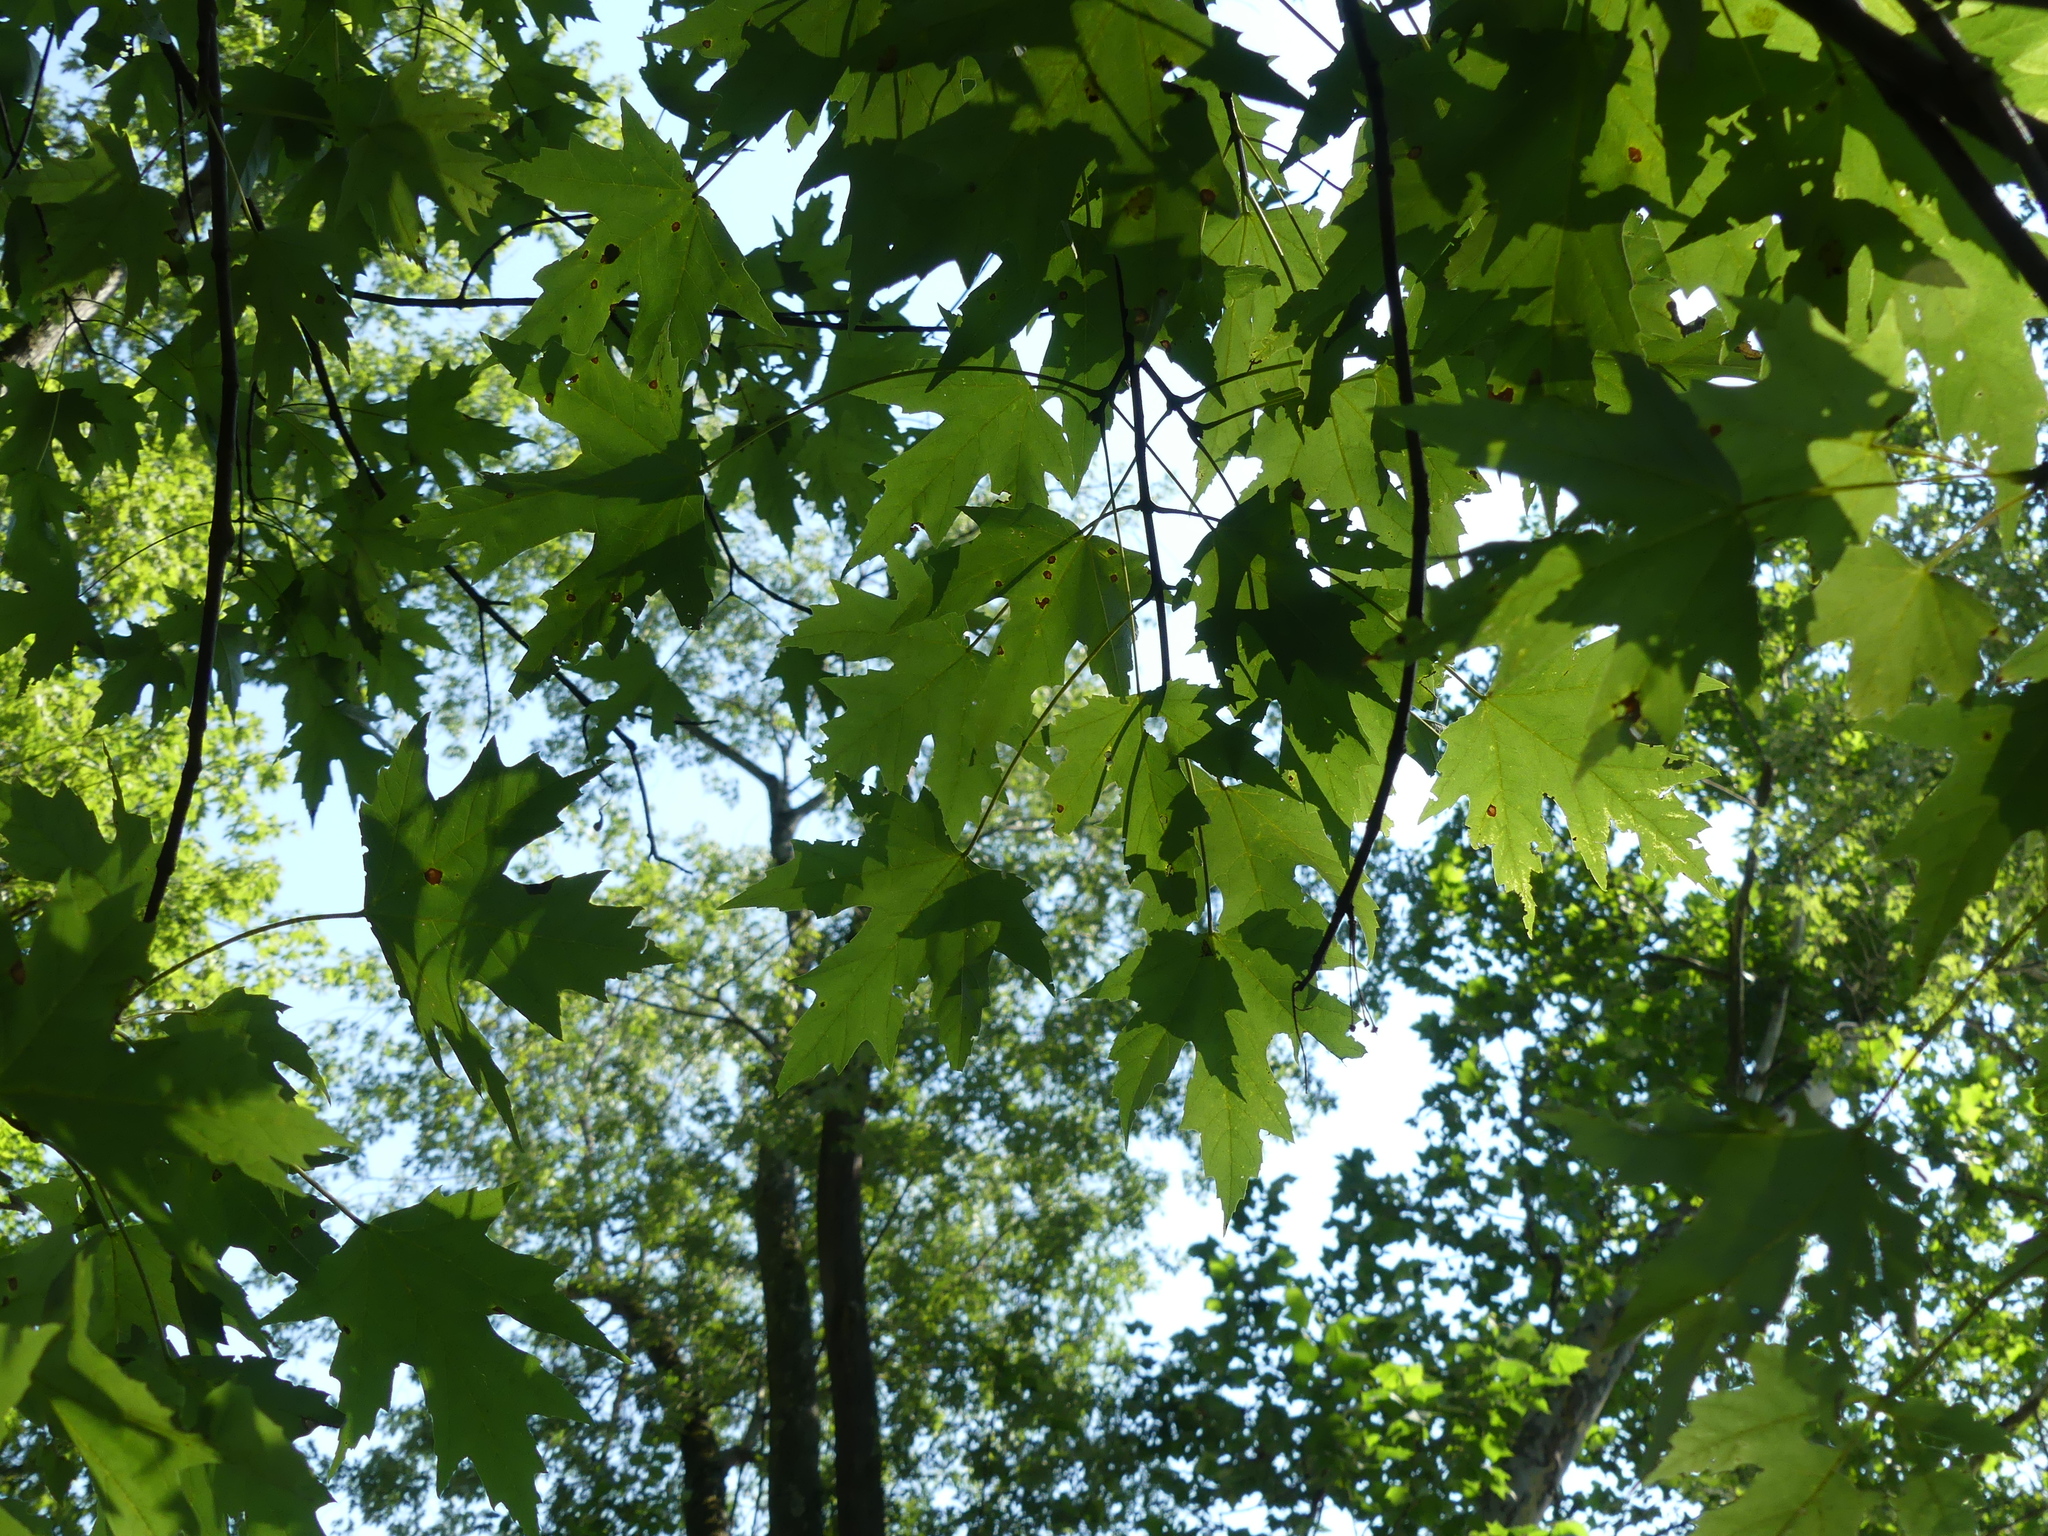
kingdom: Plantae
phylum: Tracheophyta
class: Magnoliopsida
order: Sapindales
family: Sapindaceae
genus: Acer
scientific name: Acer saccharinum
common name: Silver maple
